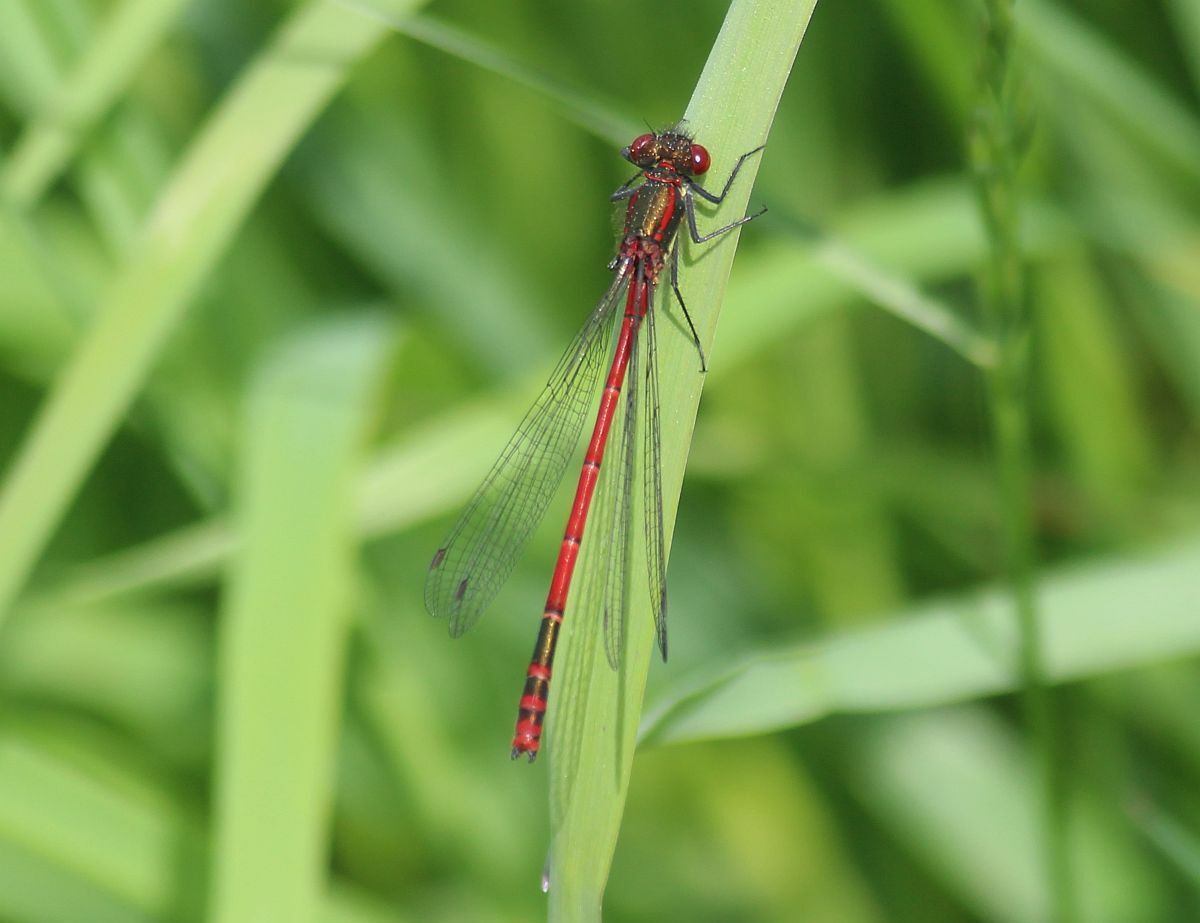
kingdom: Animalia
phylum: Arthropoda
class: Insecta
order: Odonata
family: Coenagrionidae
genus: Pyrrhosoma
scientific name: Pyrrhosoma nymphula
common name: Large red damsel
